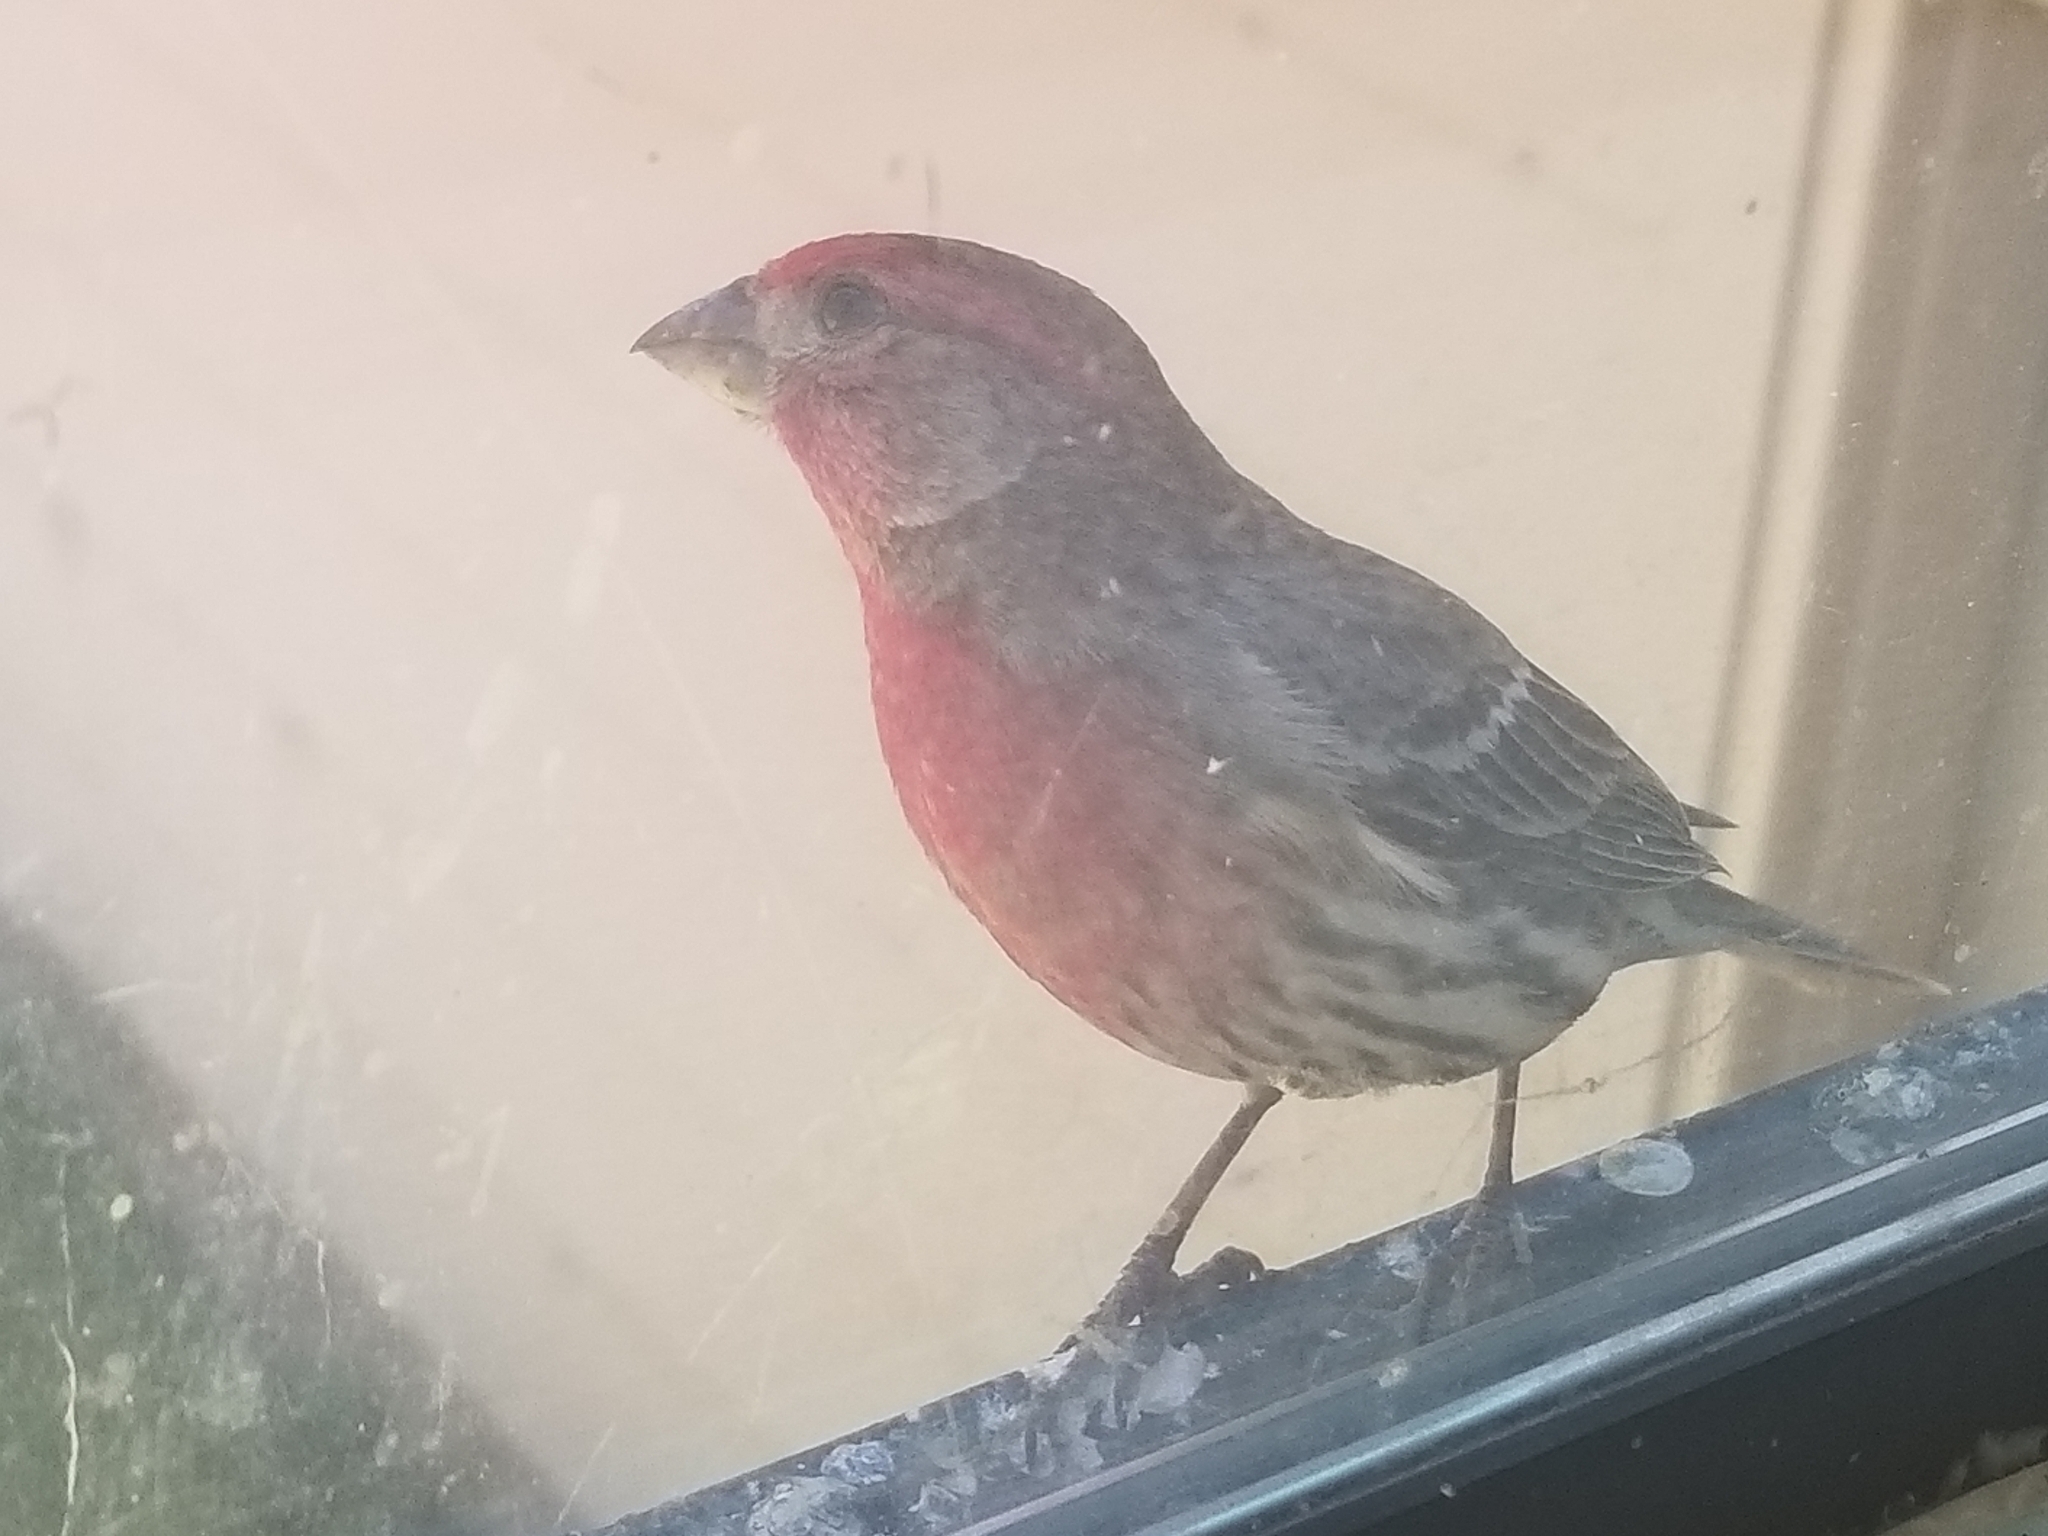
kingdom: Animalia
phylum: Chordata
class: Aves
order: Passeriformes
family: Fringillidae
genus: Haemorhous
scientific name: Haemorhous mexicanus
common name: House finch
